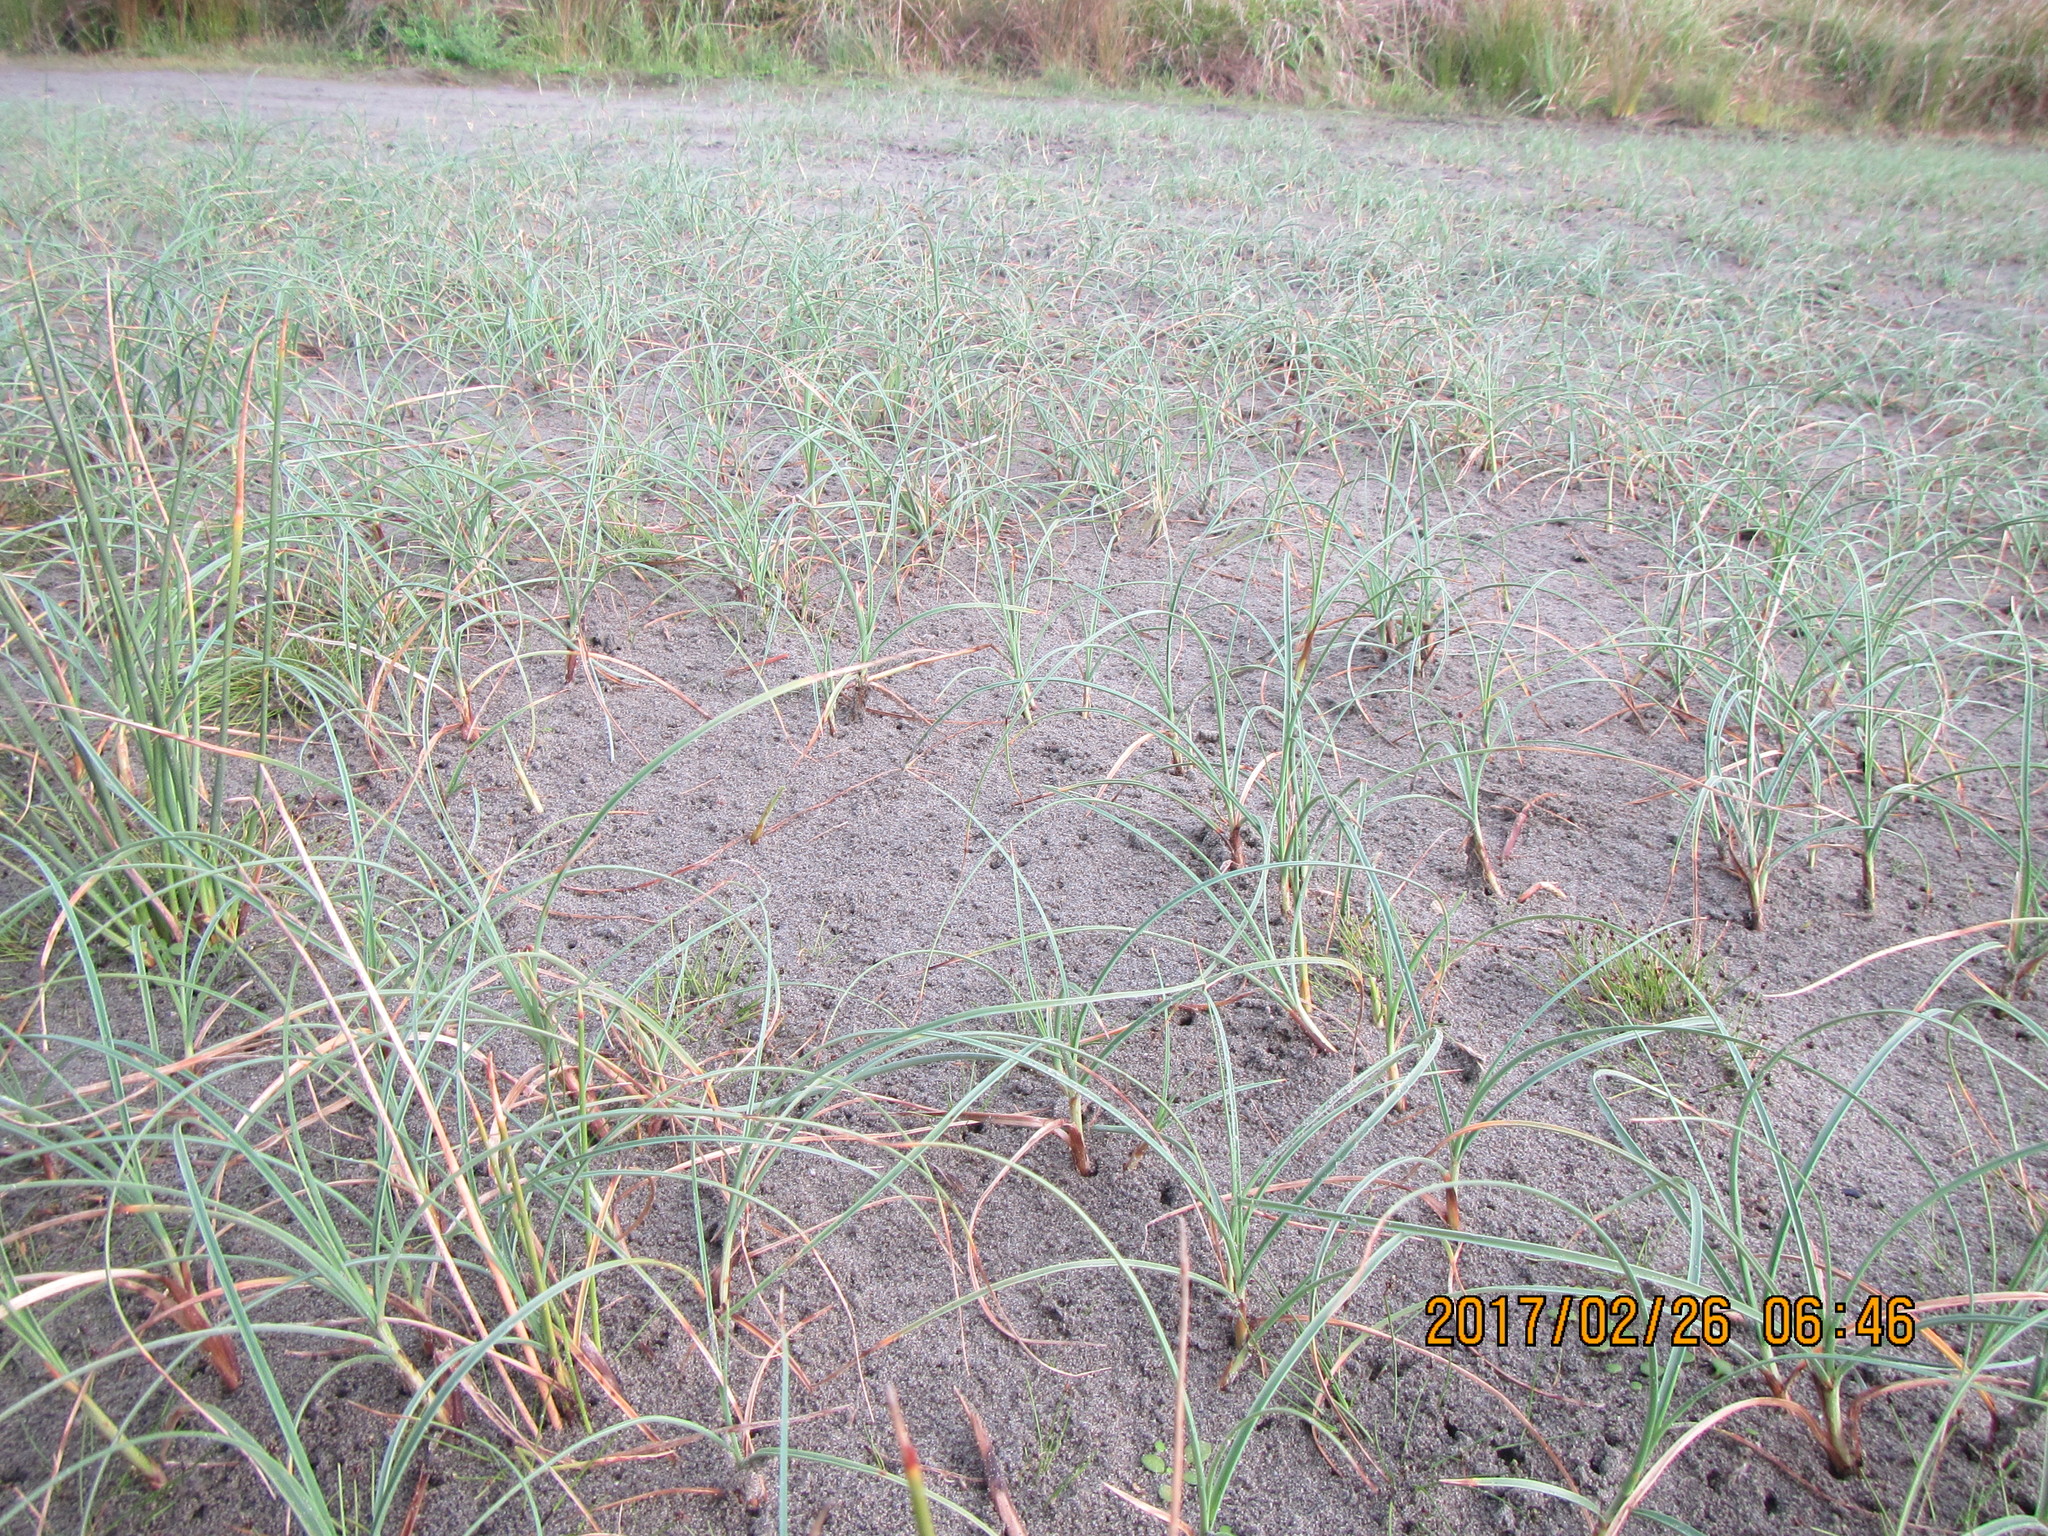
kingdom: Plantae
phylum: Tracheophyta
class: Liliopsida
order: Poales
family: Cyperaceae
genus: Carex
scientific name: Carex pumila
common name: Dwarf sedge
